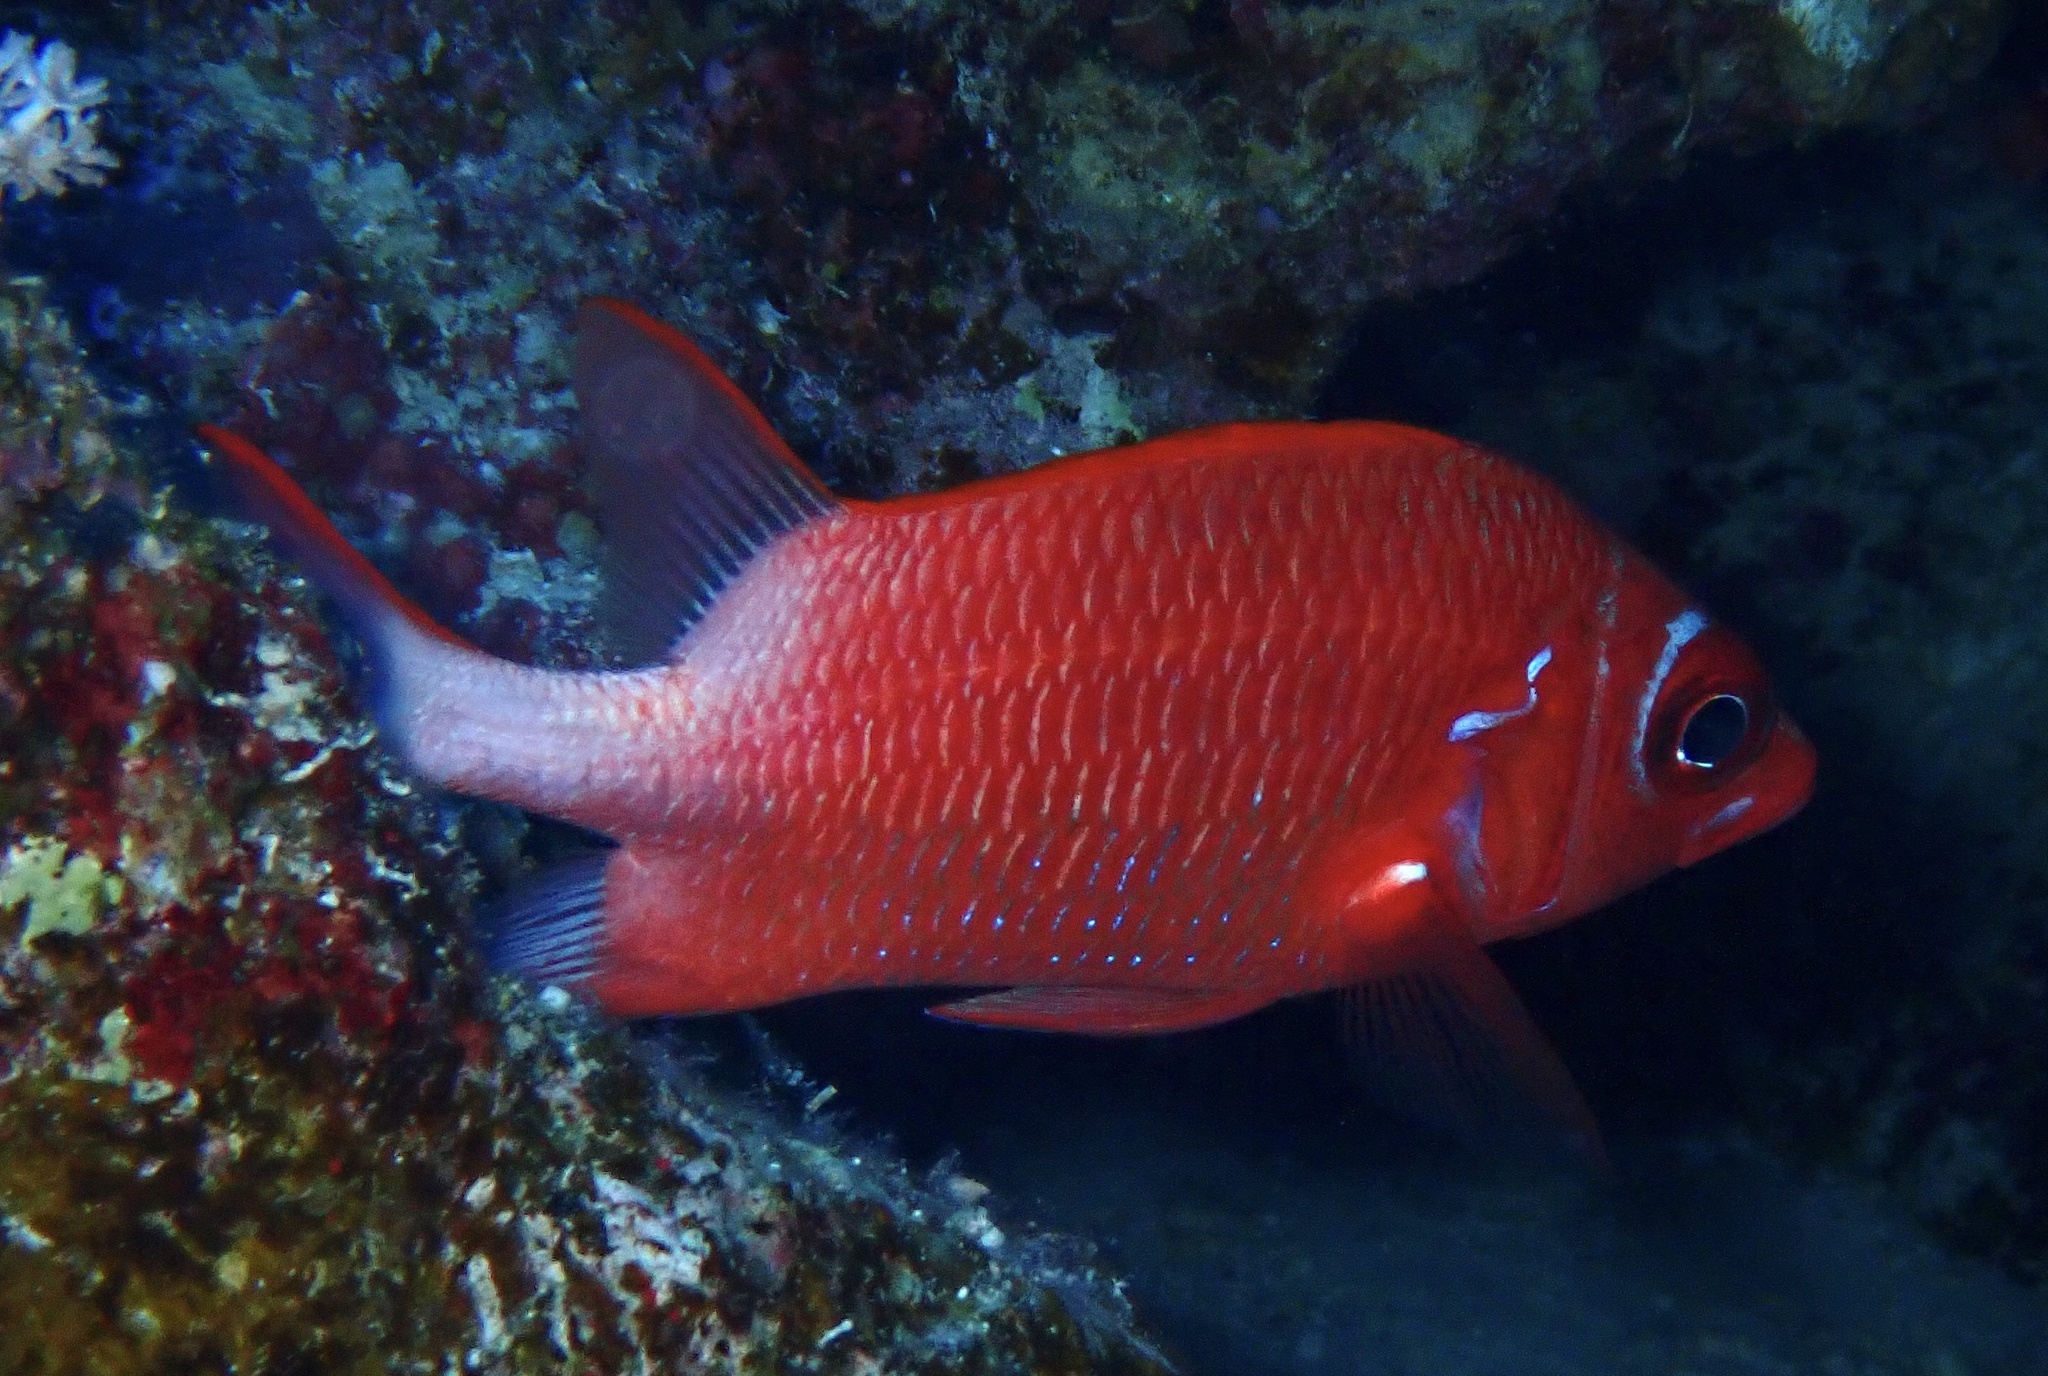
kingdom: Animalia
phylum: Chordata
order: Beryciformes
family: Holocentridae
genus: Sargocentron
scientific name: Sargocentron caudimaculatum
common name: Fanfin soldier
